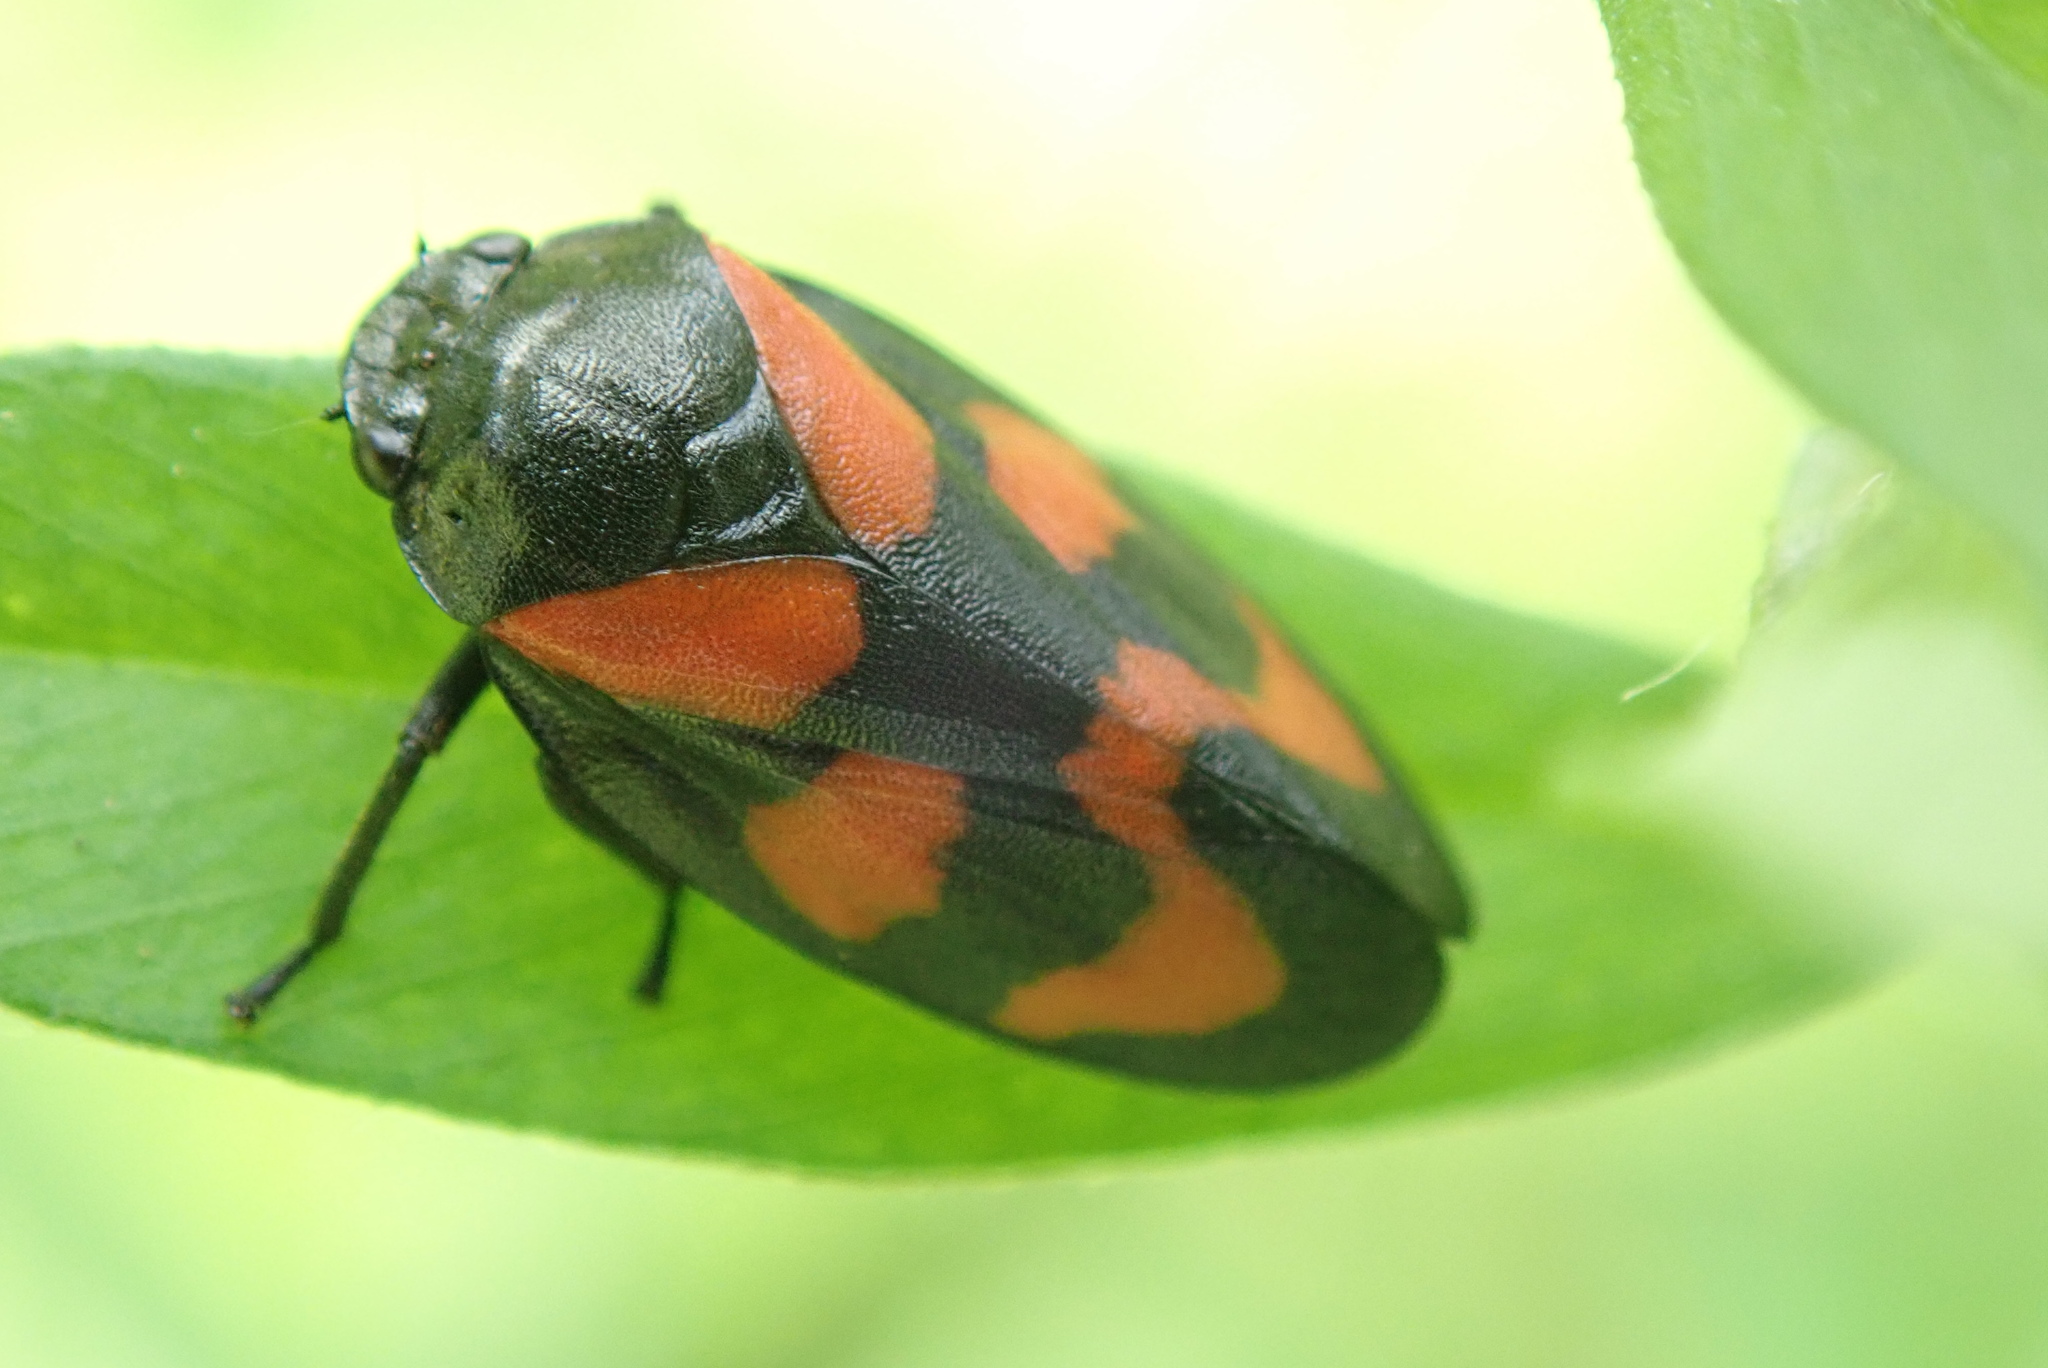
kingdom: Animalia
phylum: Arthropoda
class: Insecta
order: Hemiptera
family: Cercopidae
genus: Cercopis
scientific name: Cercopis vulnerata
